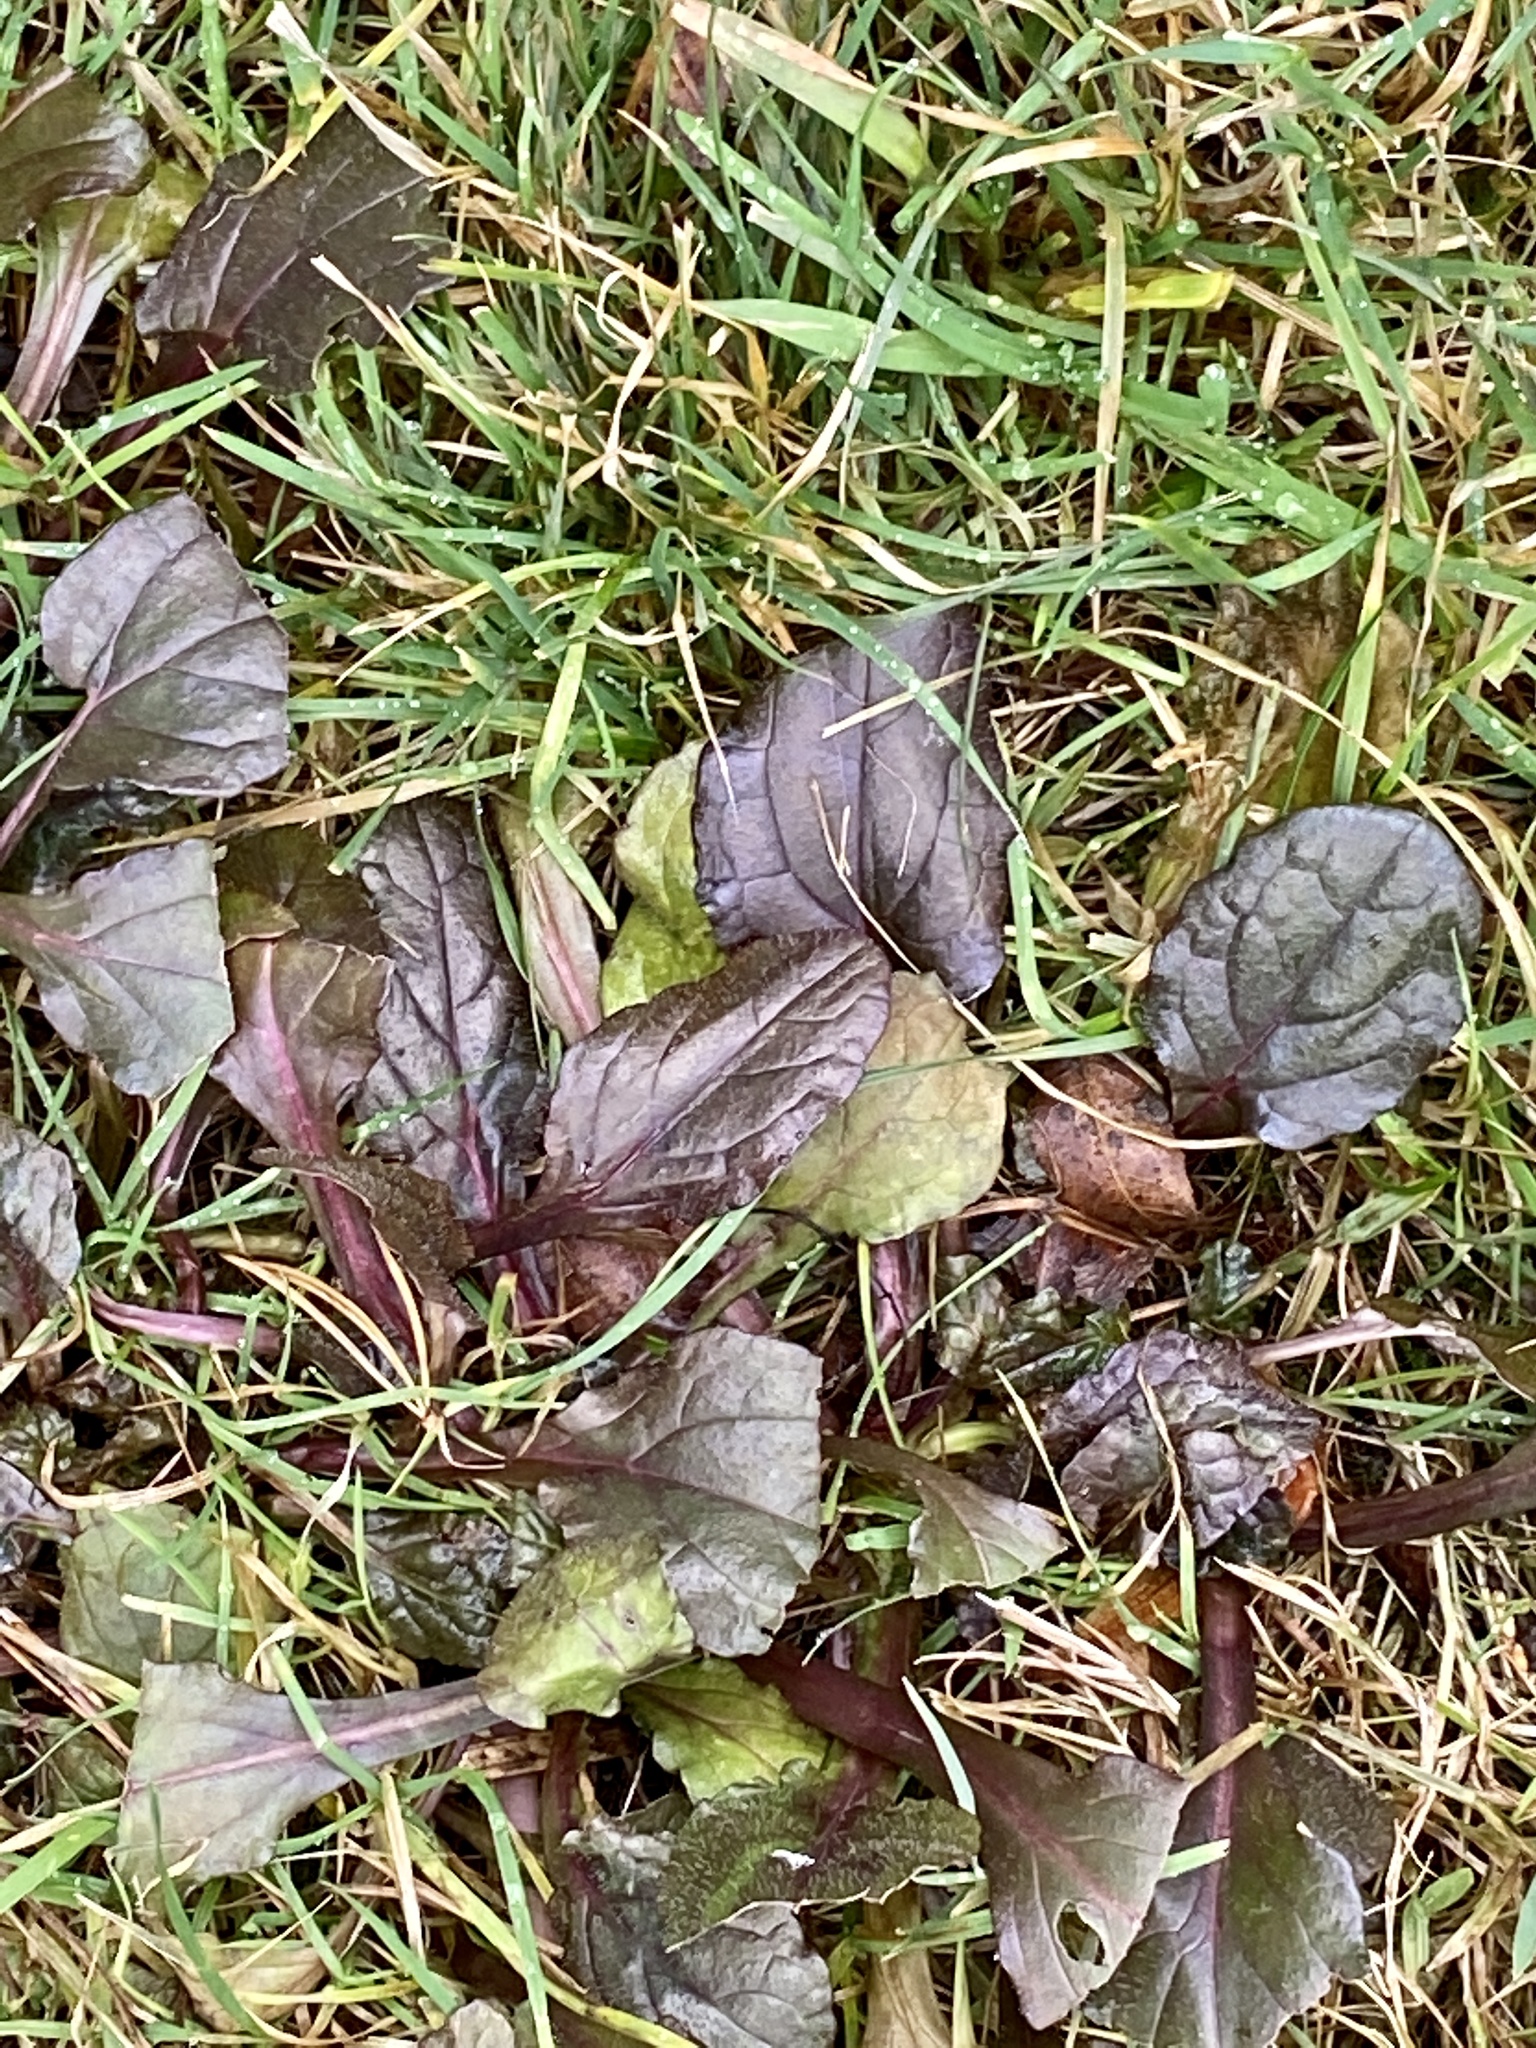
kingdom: Plantae
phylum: Tracheophyta
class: Magnoliopsida
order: Lamiales
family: Lamiaceae
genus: Ajuga
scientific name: Ajuga reptans
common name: Bugle
